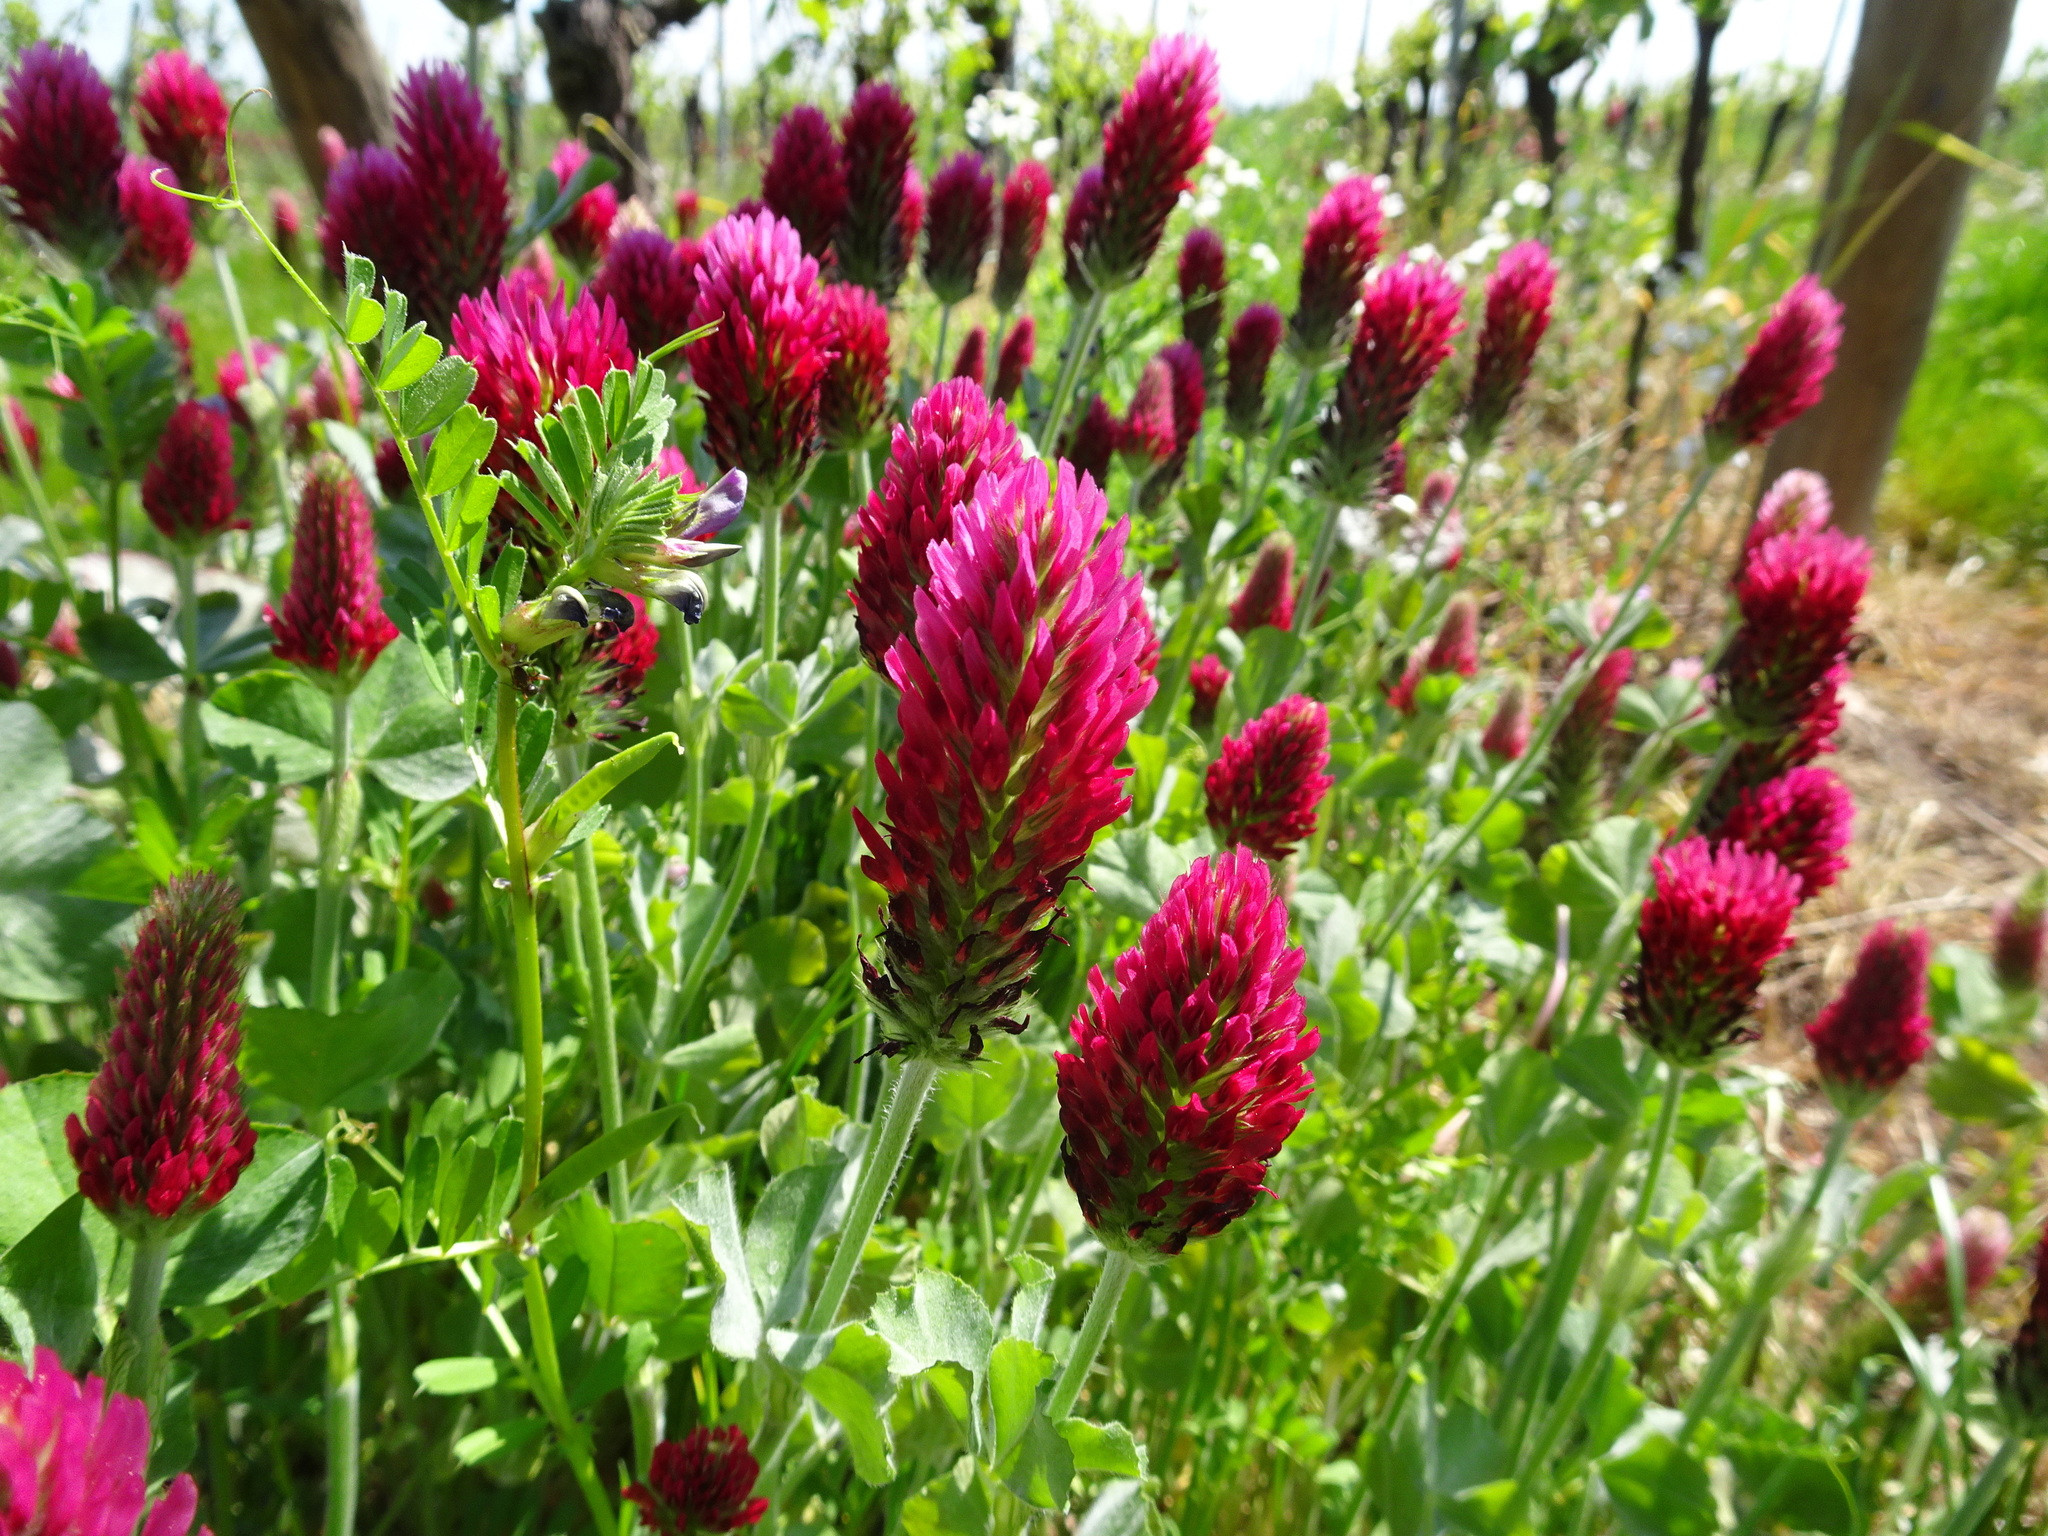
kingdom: Plantae
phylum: Tracheophyta
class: Magnoliopsida
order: Fabales
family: Fabaceae
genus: Trifolium
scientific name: Trifolium incarnatum
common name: Crimson clover
